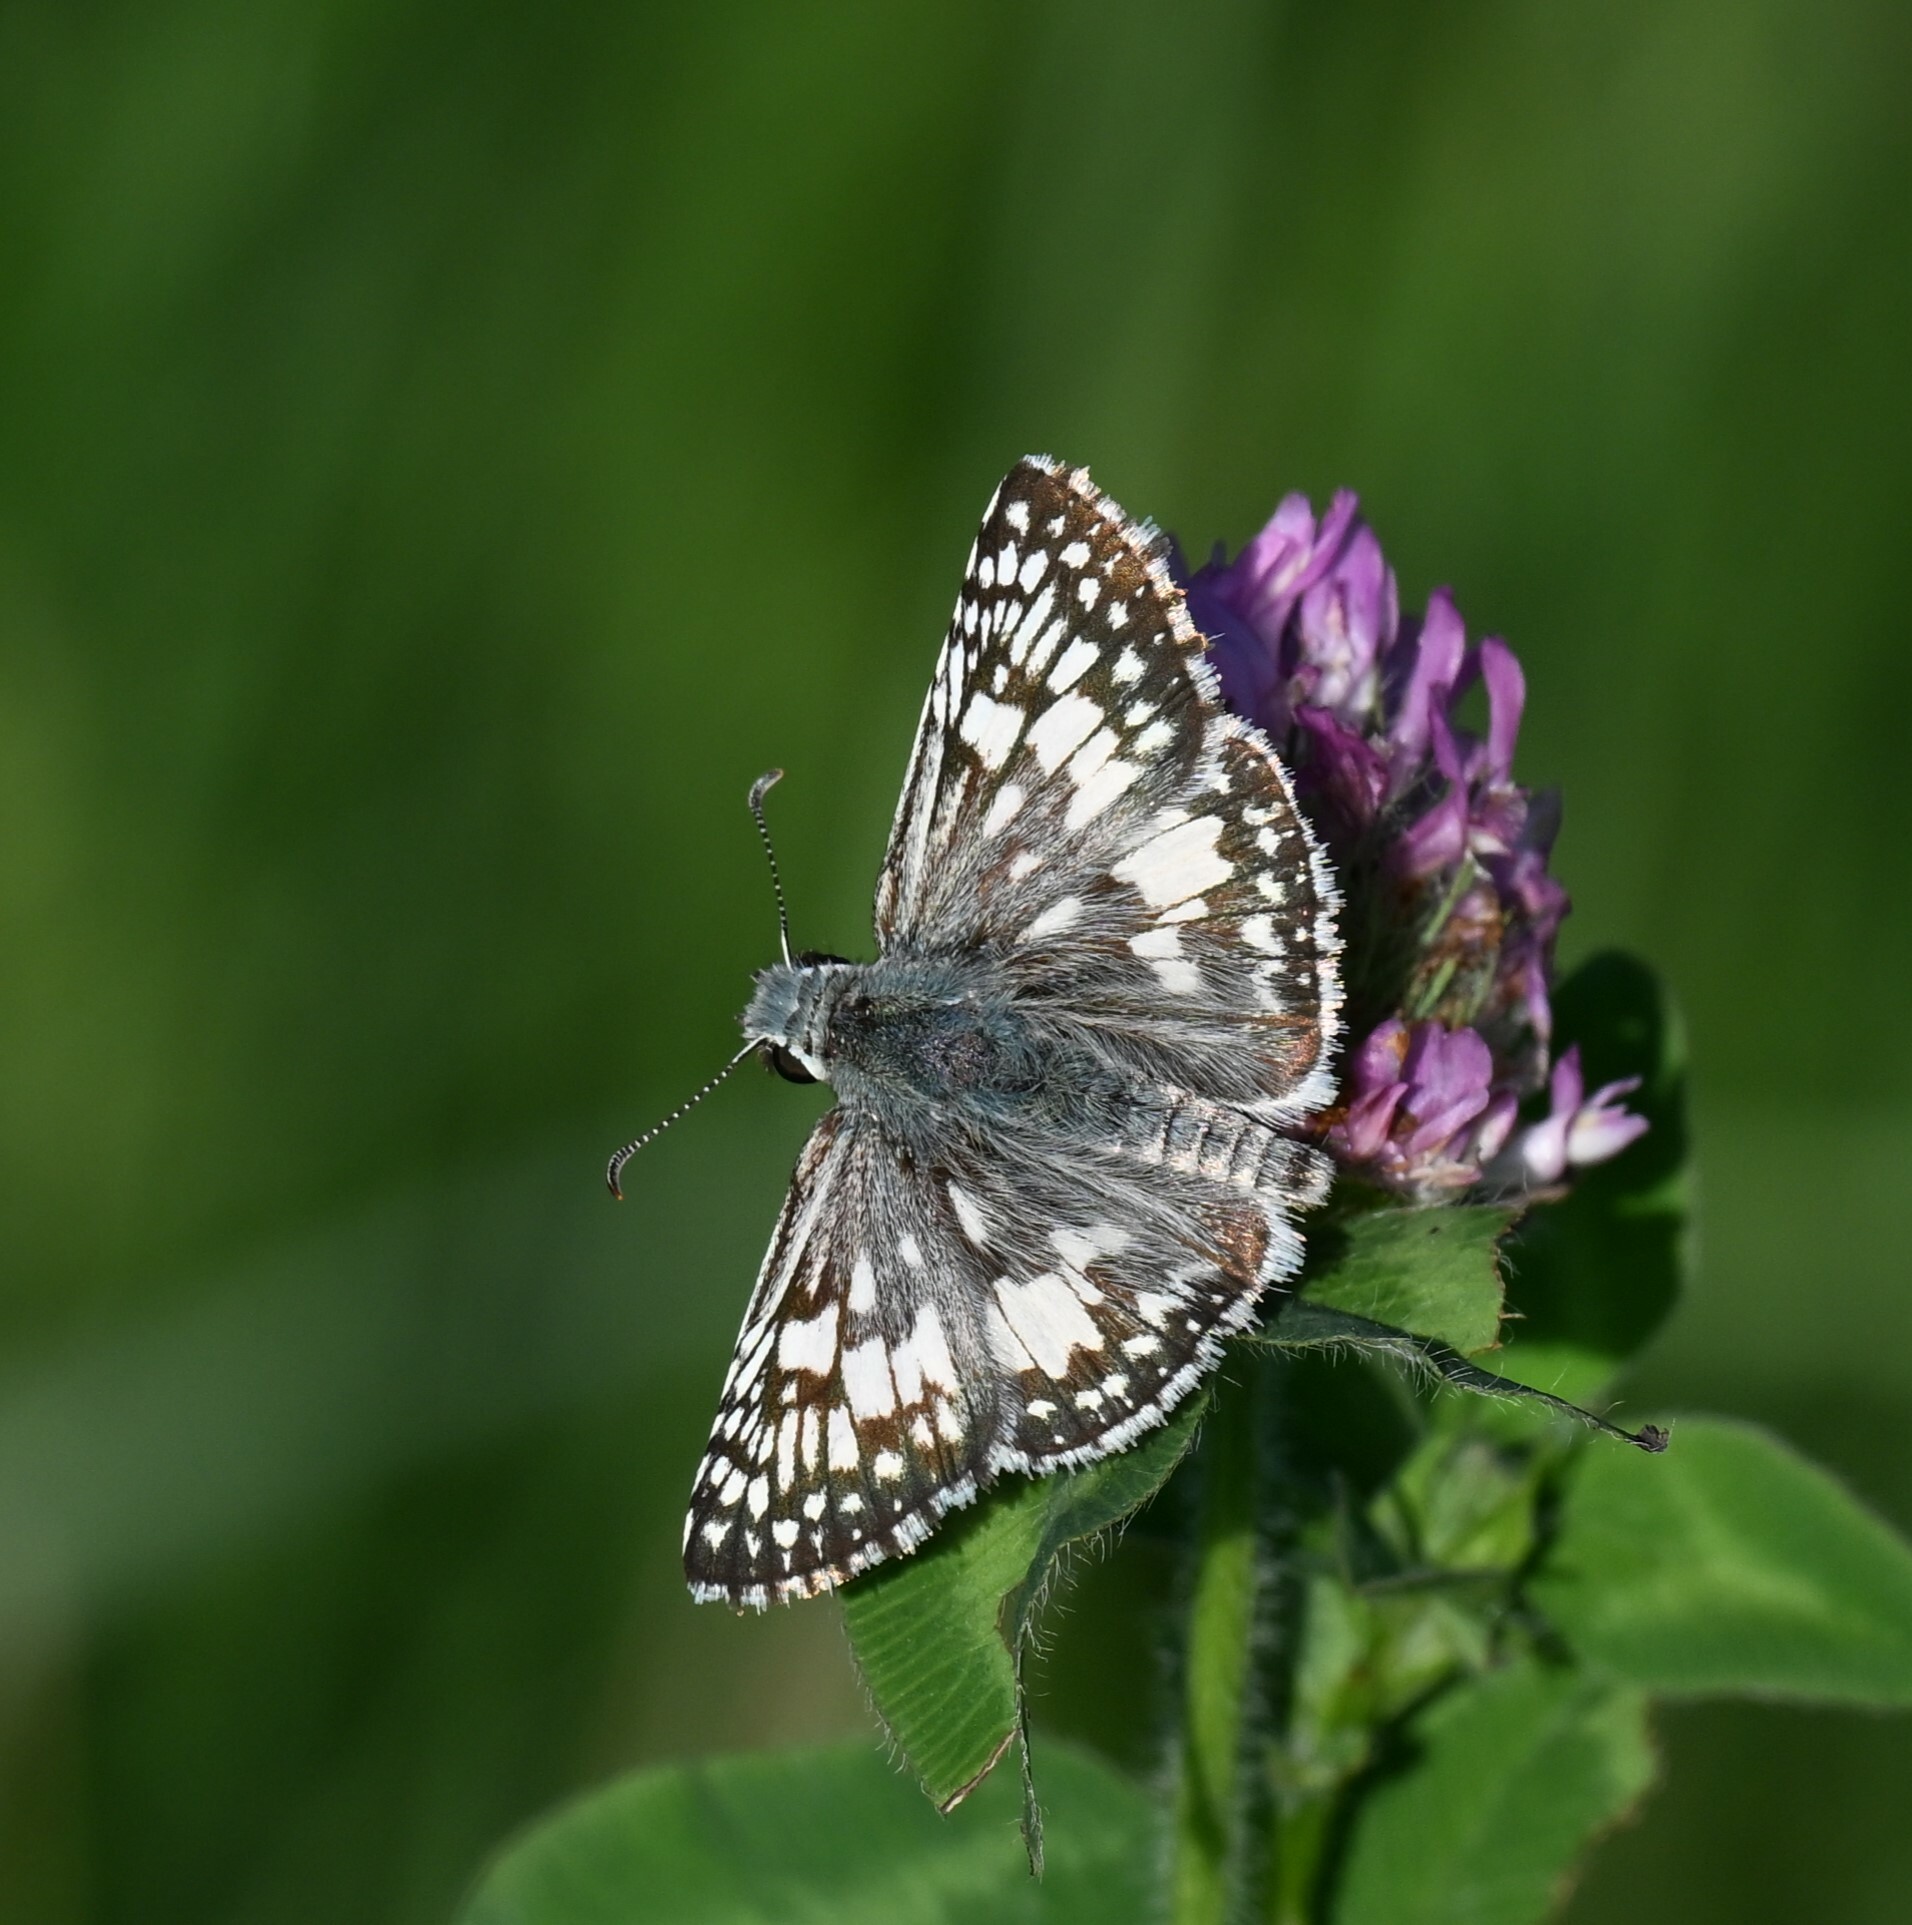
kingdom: Animalia
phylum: Arthropoda
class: Insecta
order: Lepidoptera
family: Hesperiidae
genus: Burnsius
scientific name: Burnsius communis
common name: Common checkered-skipper
